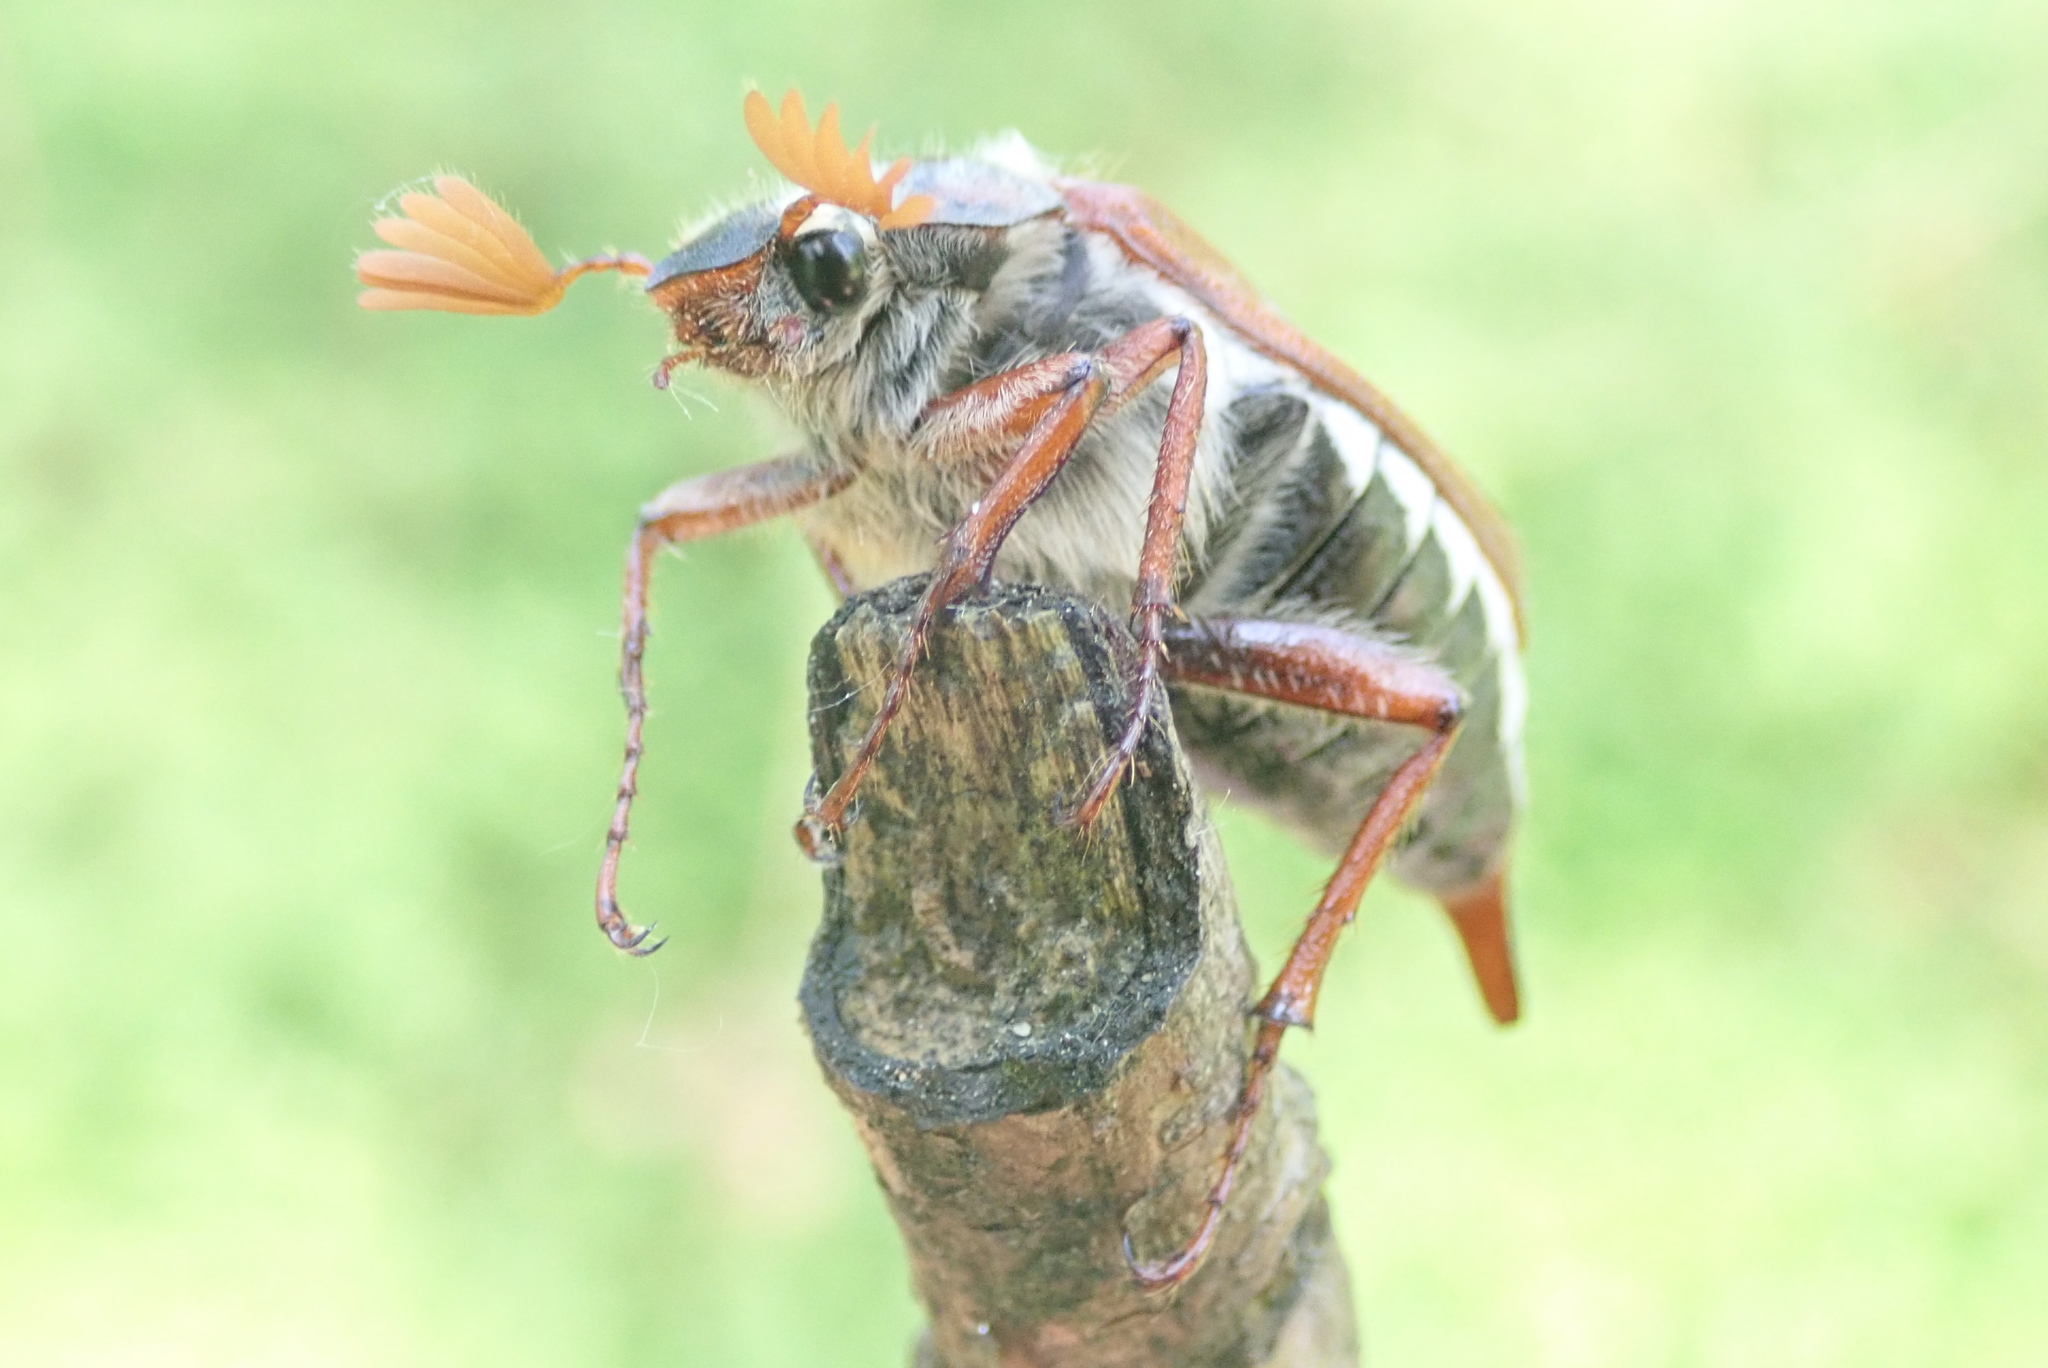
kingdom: Animalia
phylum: Arthropoda
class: Insecta
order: Coleoptera
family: Scarabaeidae
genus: Melolontha
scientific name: Melolontha melolontha
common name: Cockchafer maybeetle
